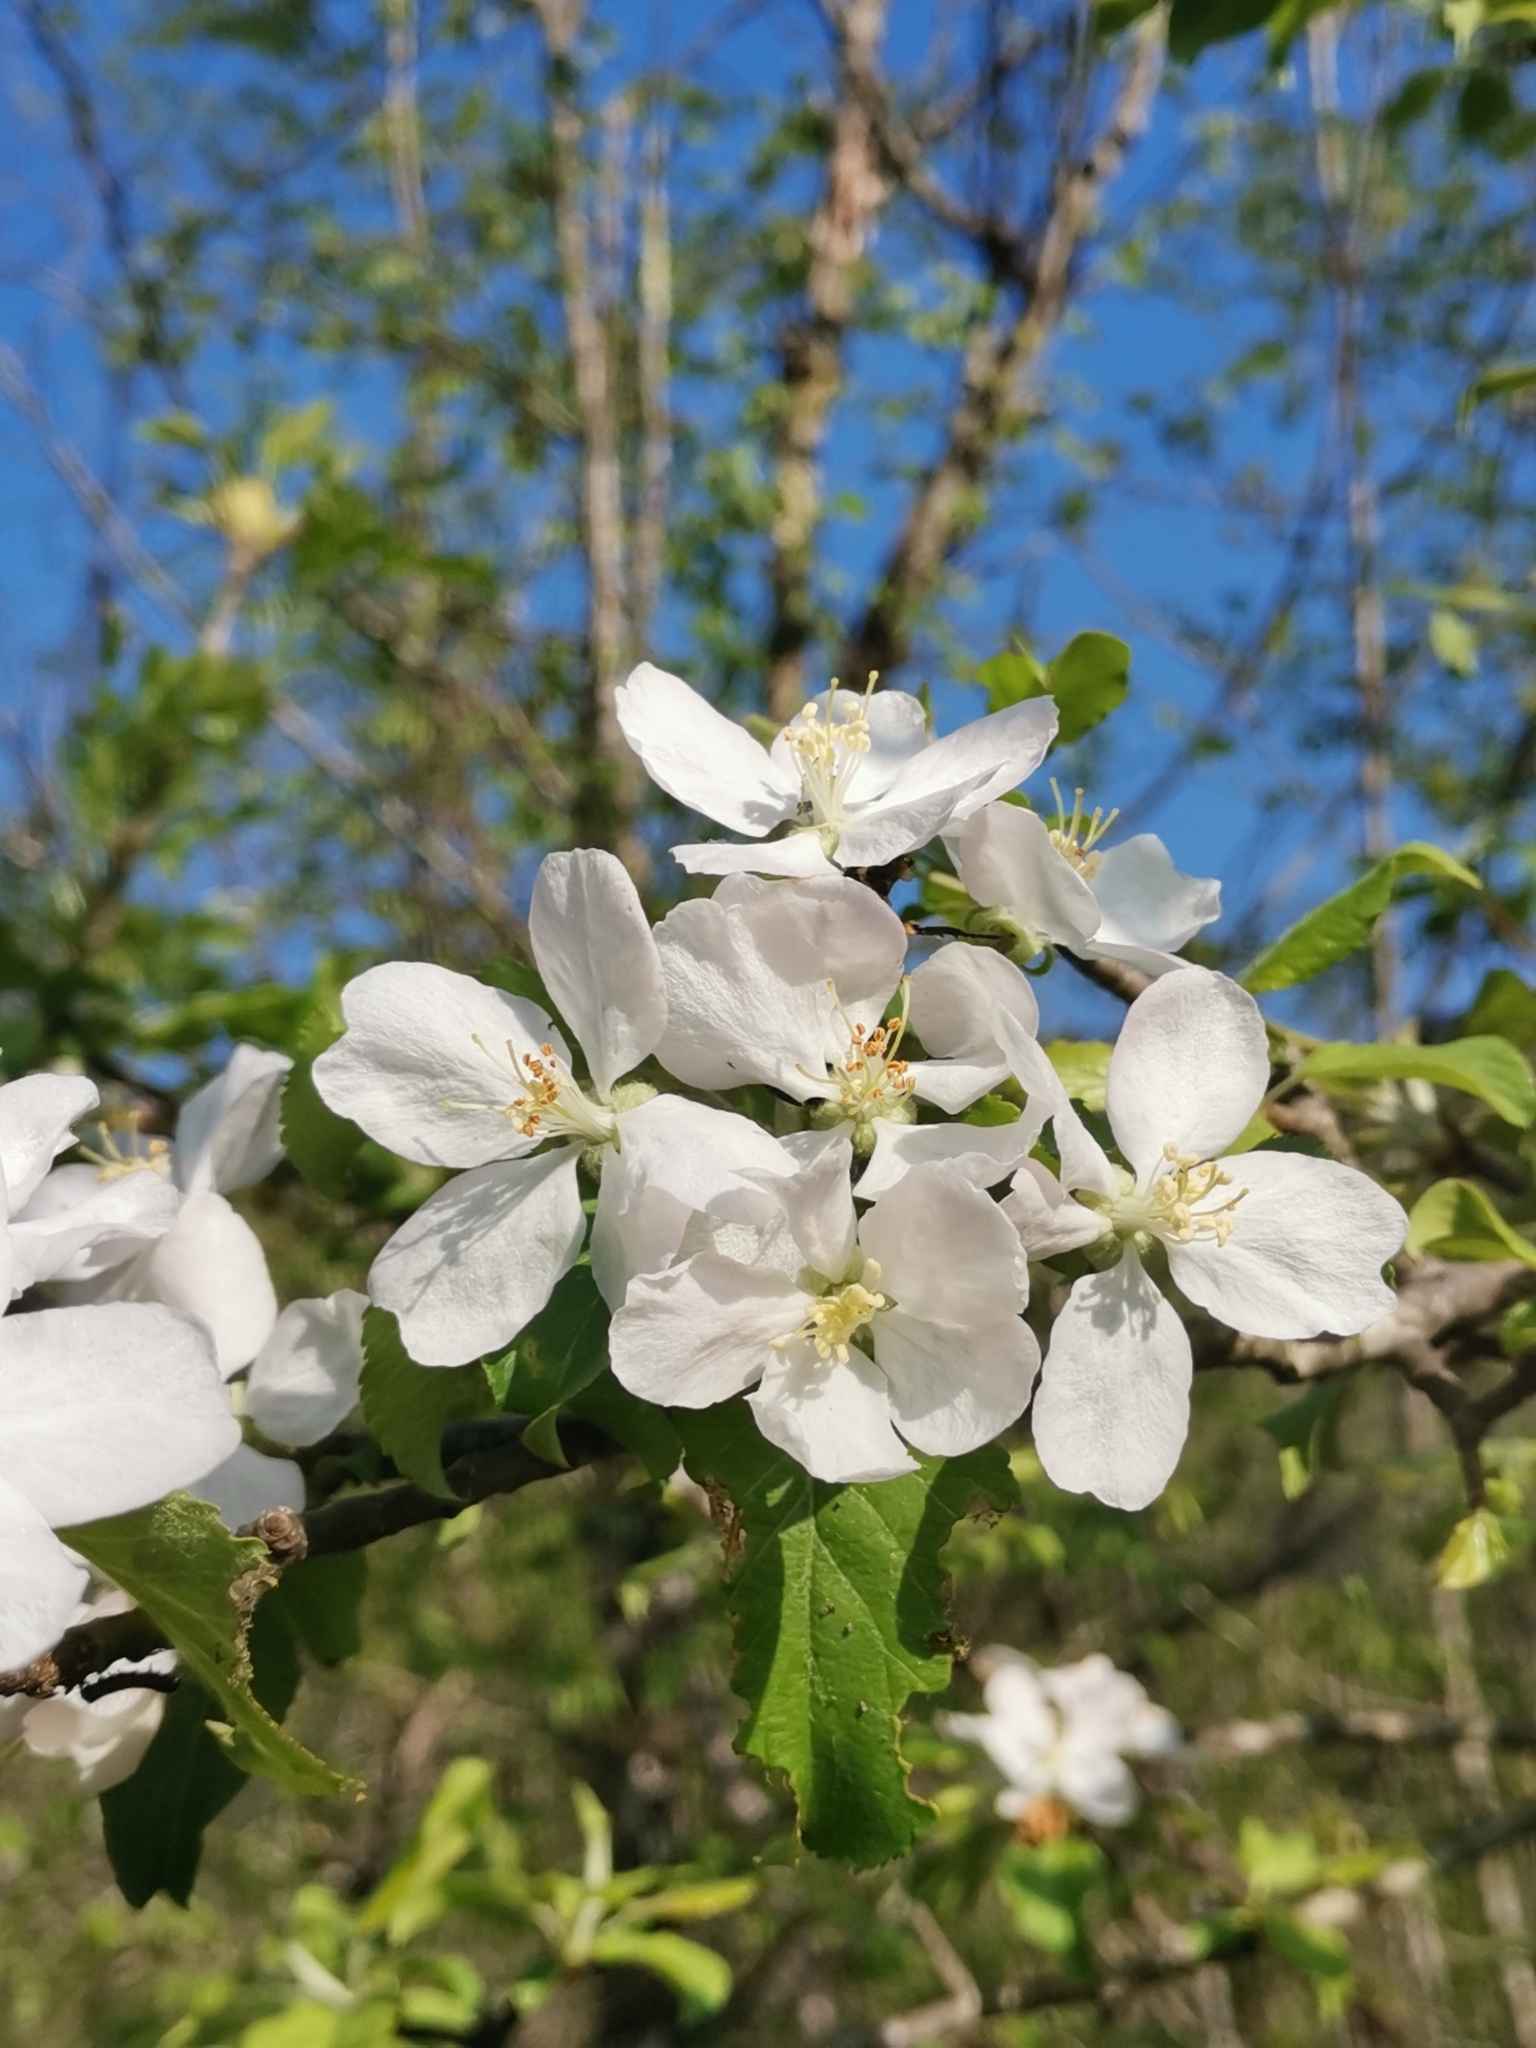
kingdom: Plantae
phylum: Tracheophyta
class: Magnoliopsida
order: Rosales
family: Rosaceae
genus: Malus
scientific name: Malus sylvestris
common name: Crab apple
